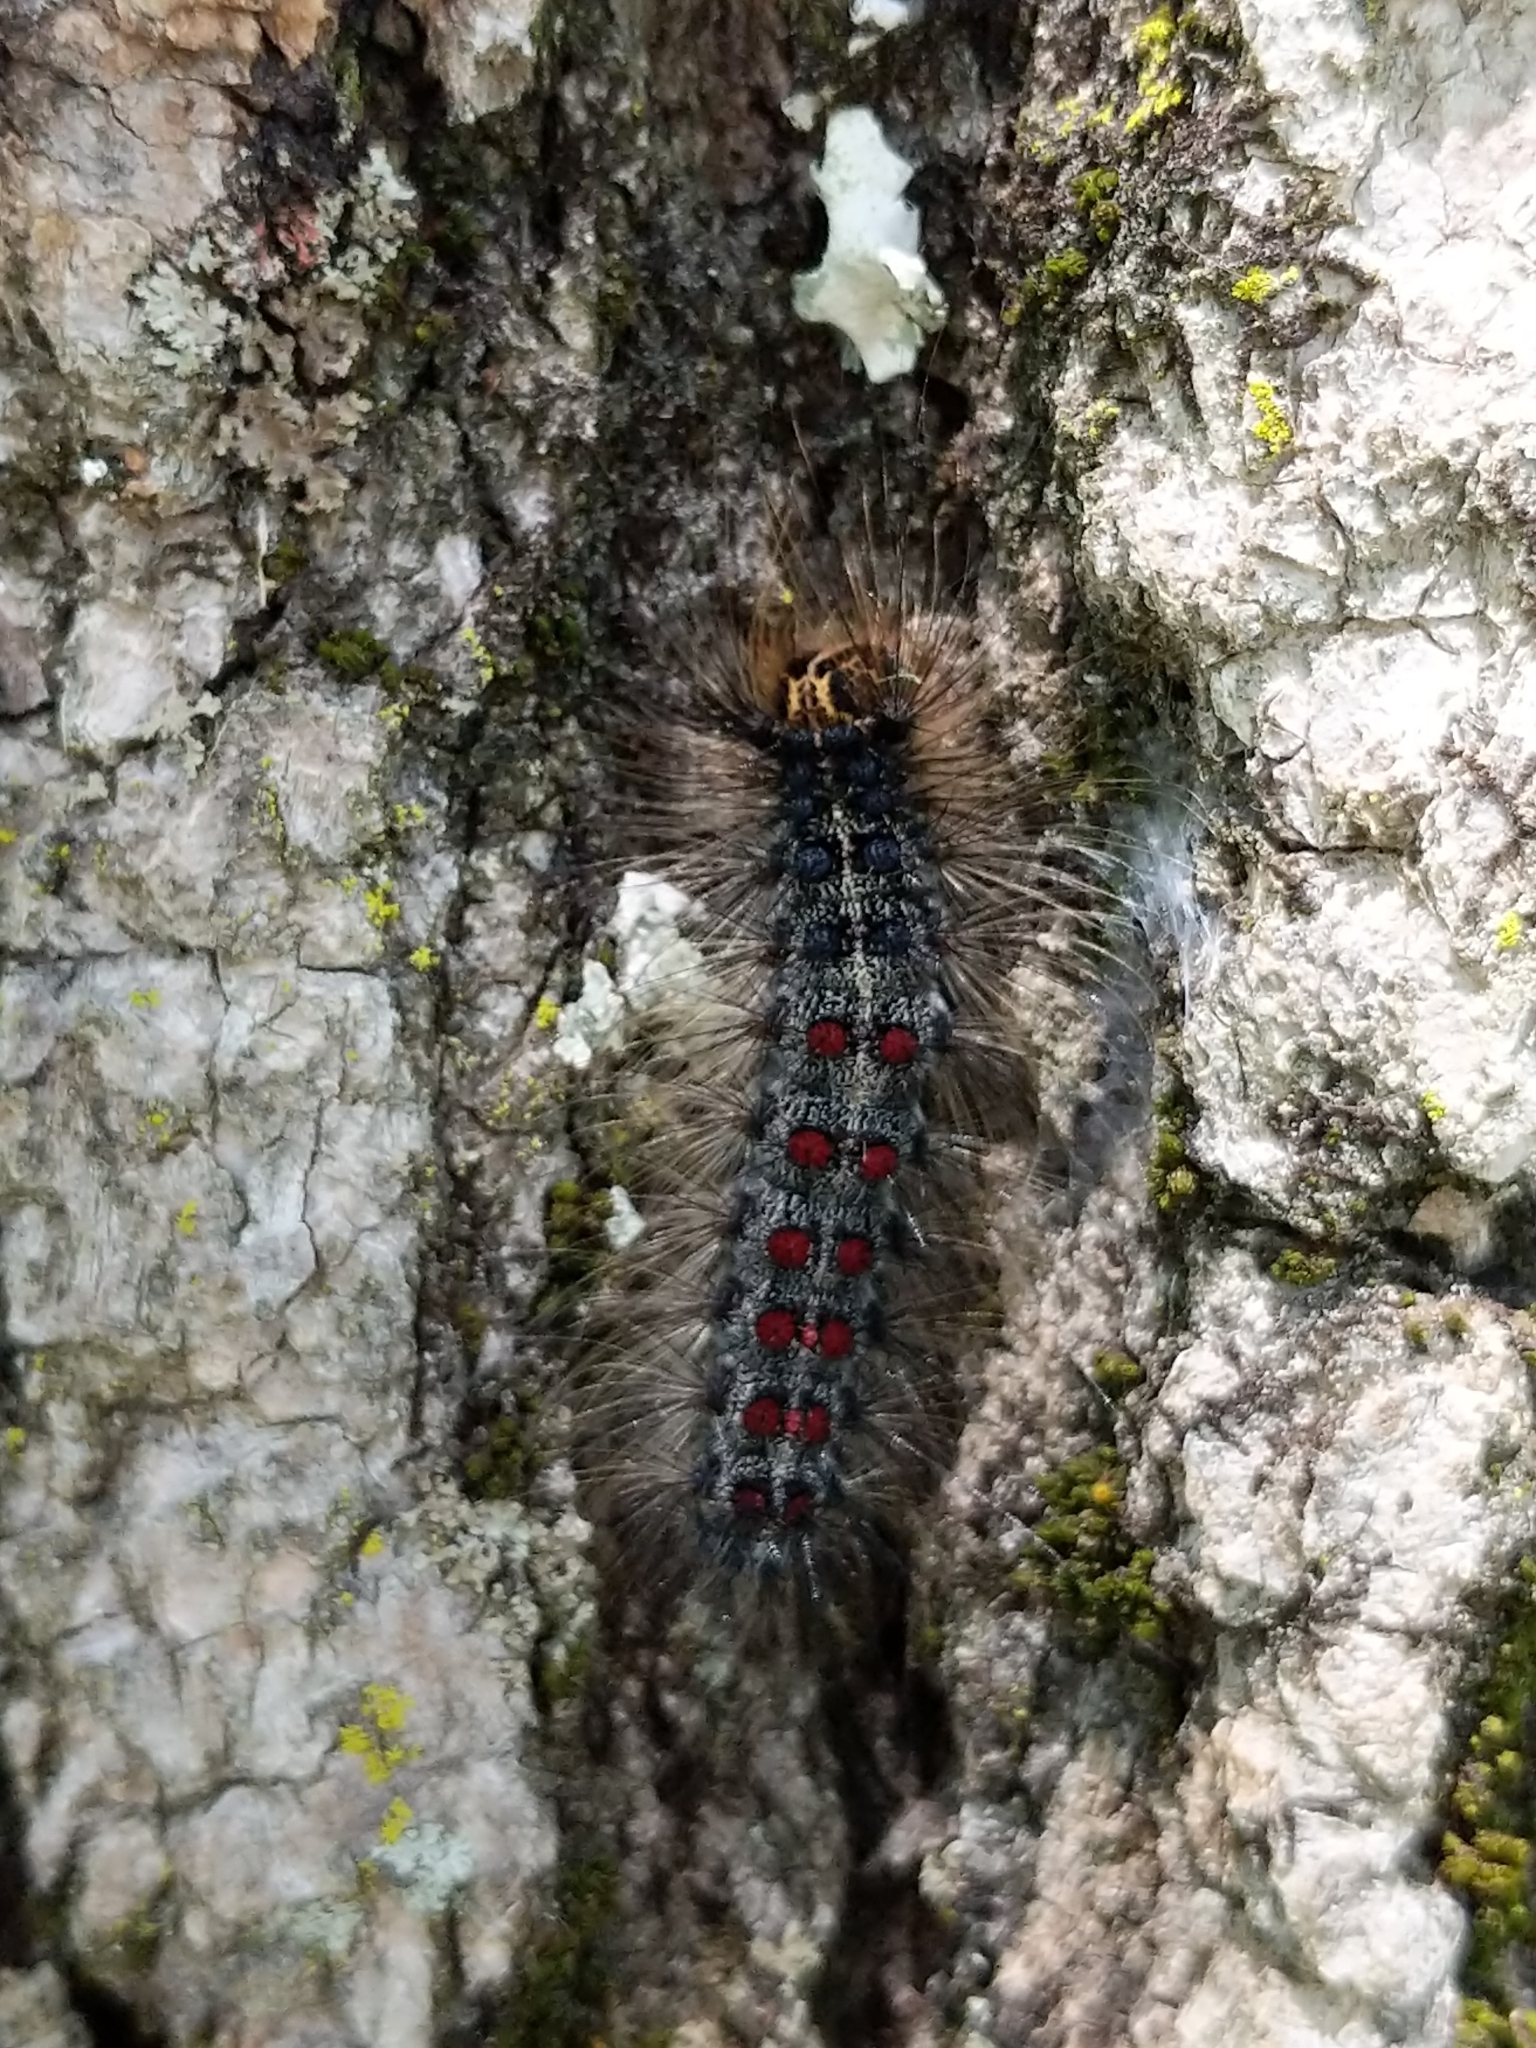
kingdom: Animalia
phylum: Arthropoda
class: Insecta
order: Lepidoptera
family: Erebidae
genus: Lymantria
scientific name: Lymantria dispar
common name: Gypsy moth
